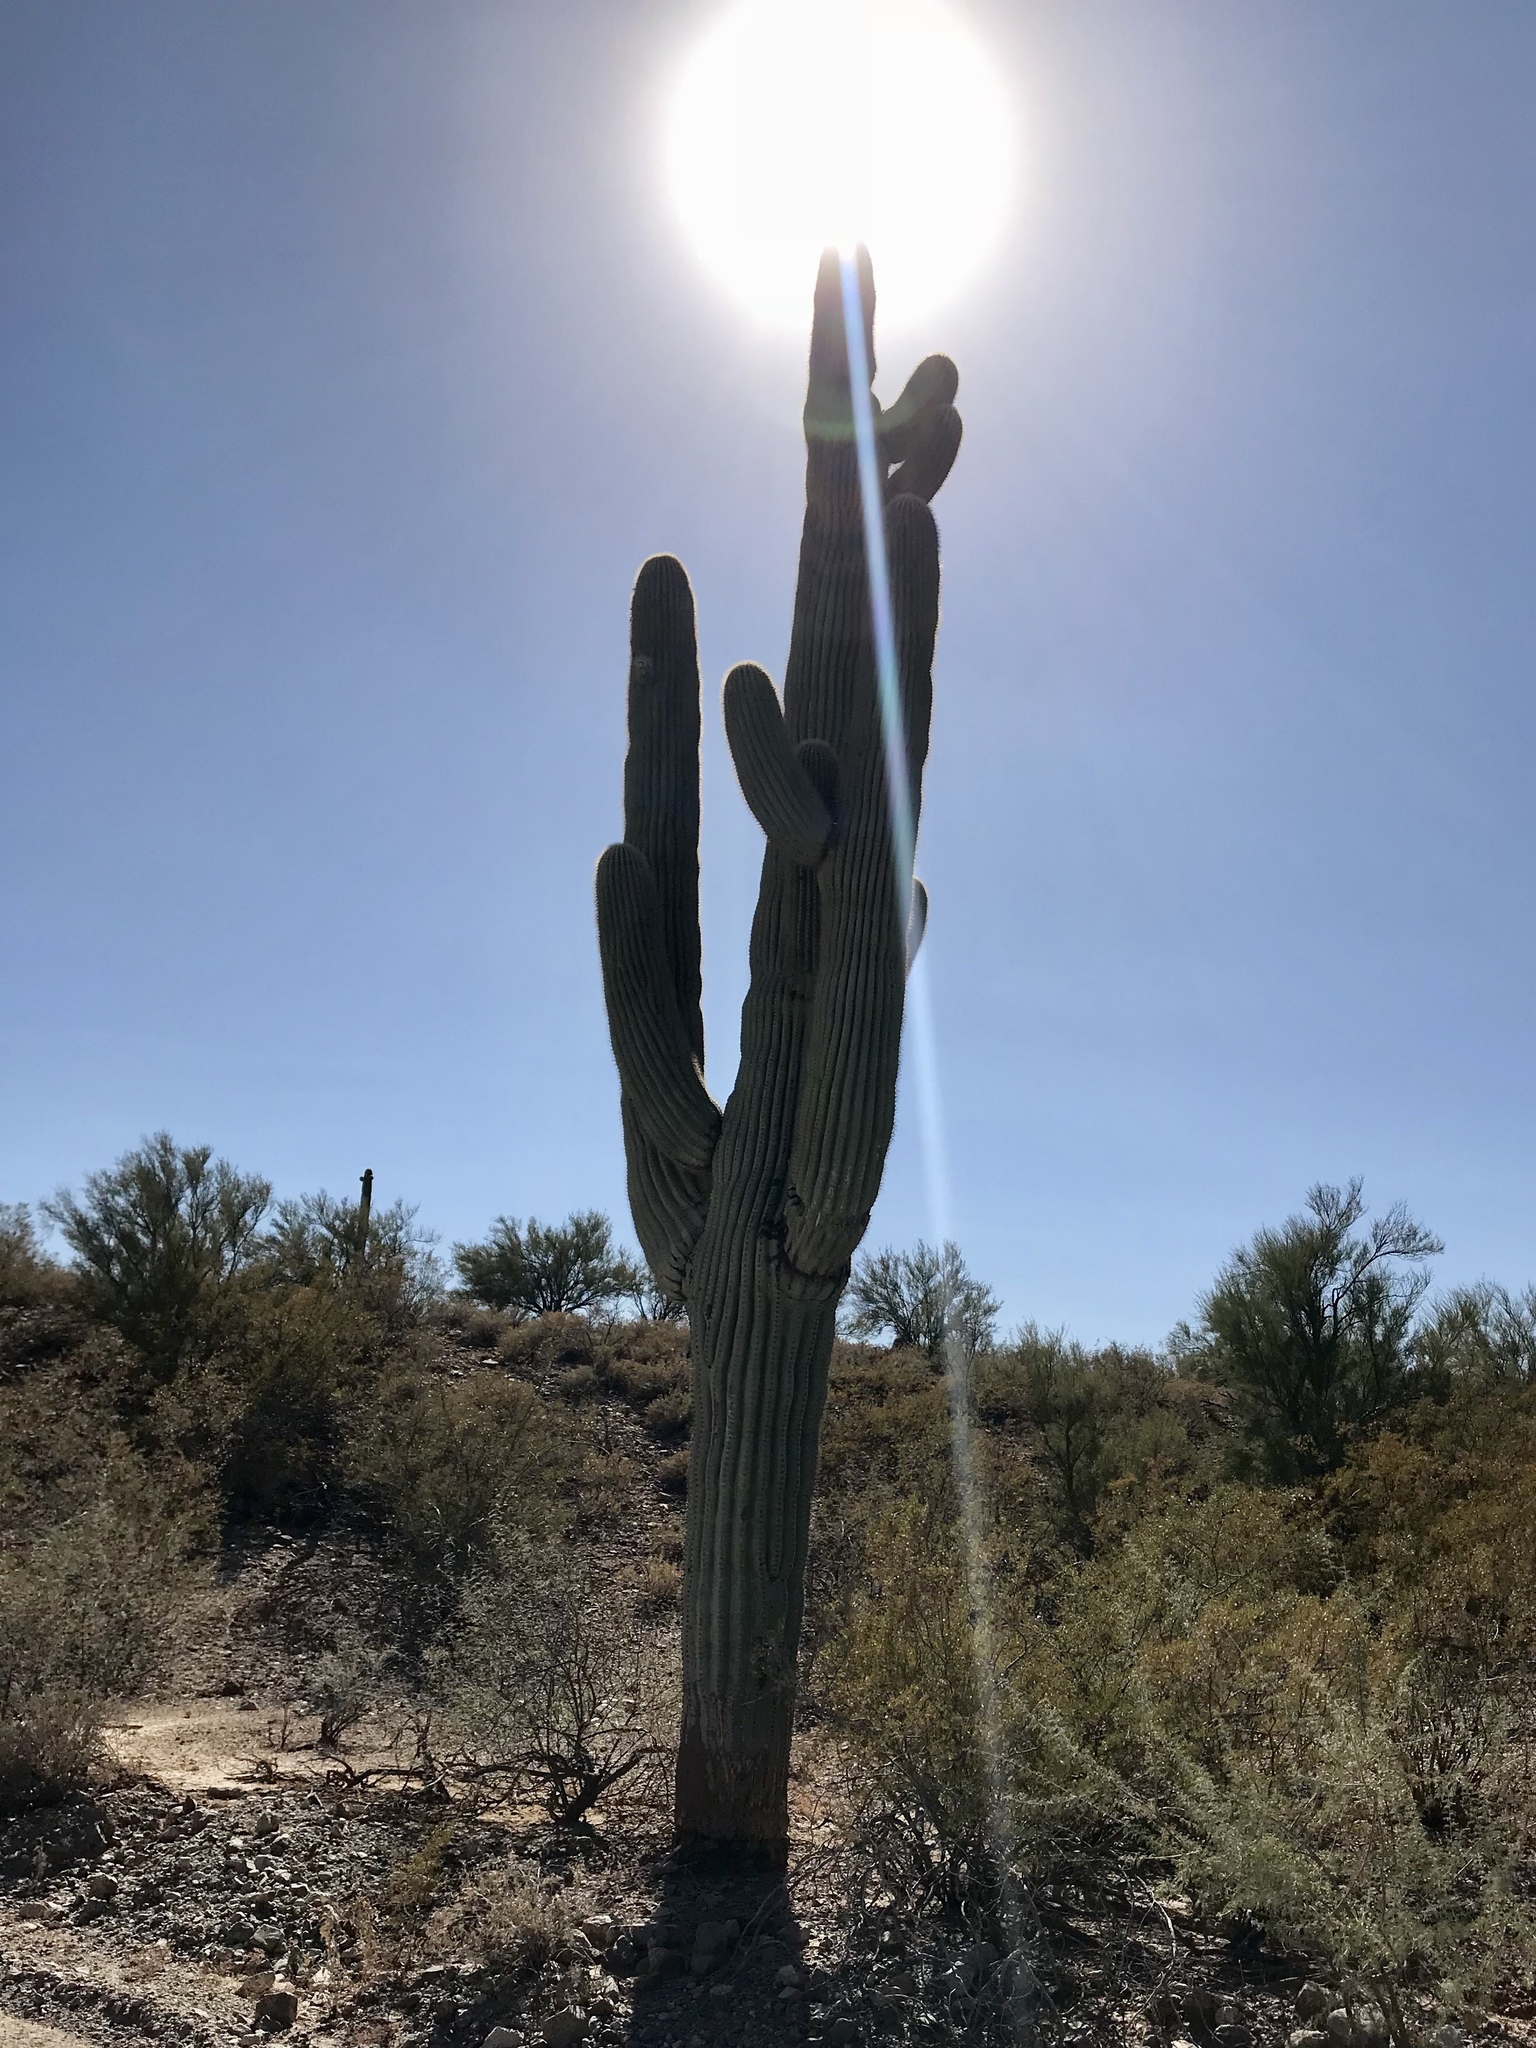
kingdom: Plantae
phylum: Tracheophyta
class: Magnoliopsida
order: Caryophyllales
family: Cactaceae
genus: Carnegiea
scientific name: Carnegiea gigantea
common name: Saguaro
